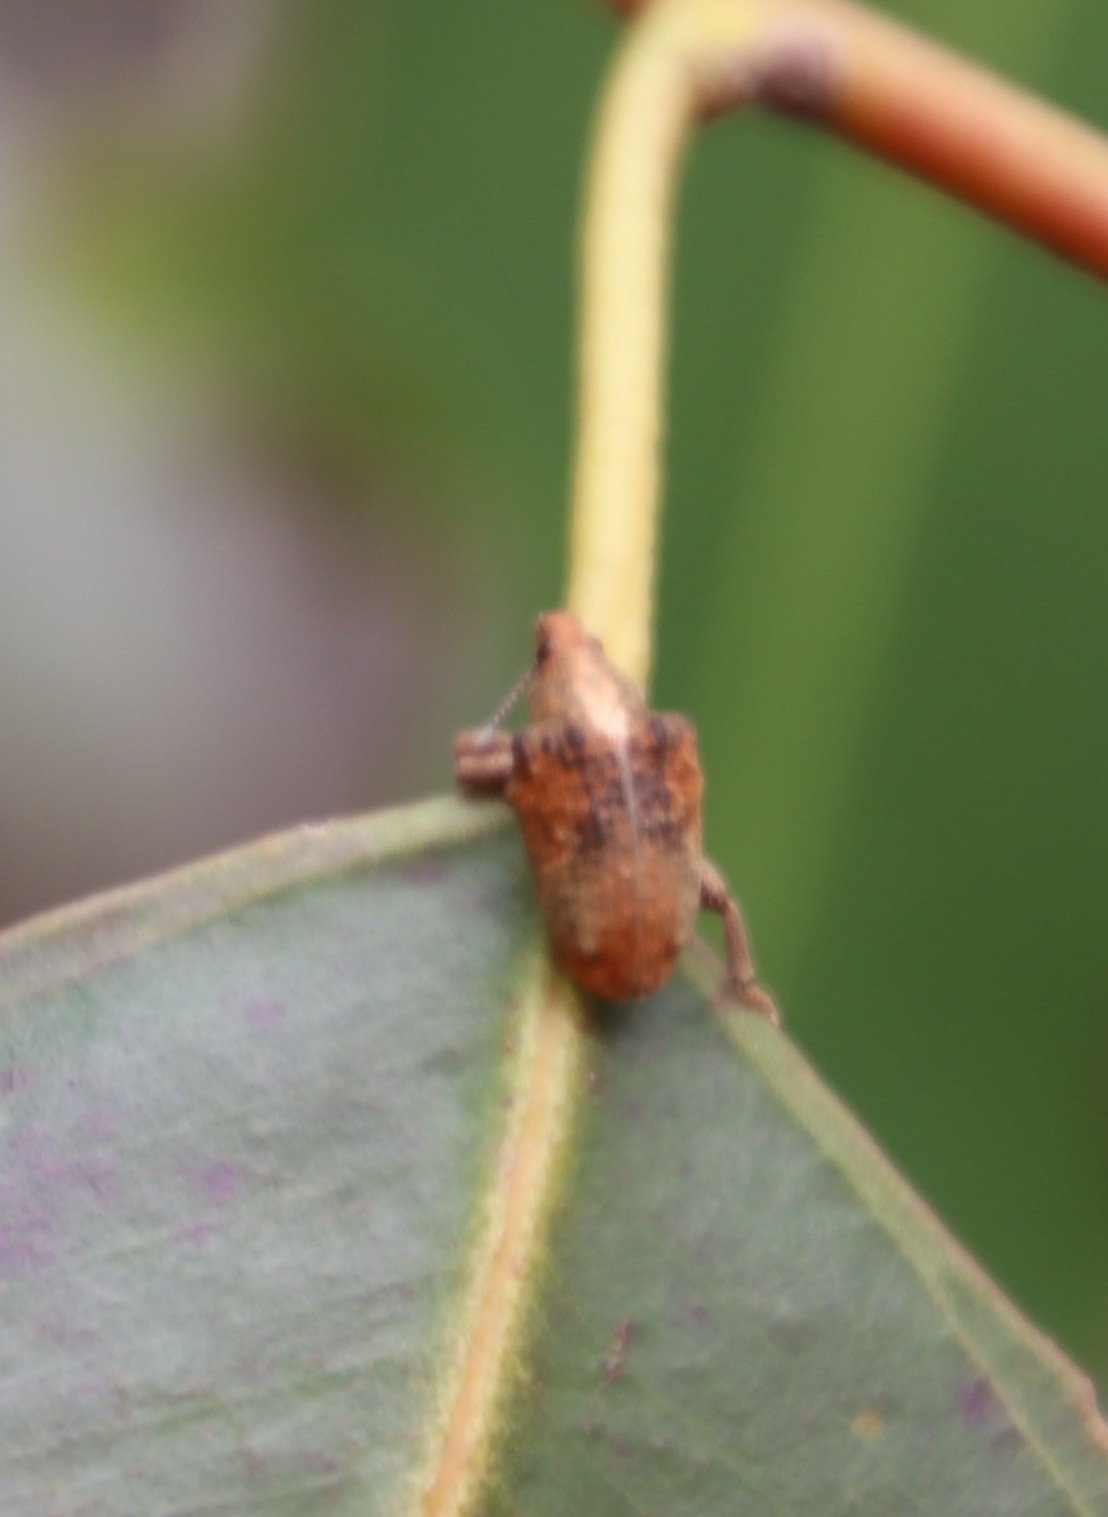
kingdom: Animalia
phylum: Arthropoda
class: Insecta
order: Coleoptera
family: Curculionidae
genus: Gonipterus
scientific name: Gonipterus
